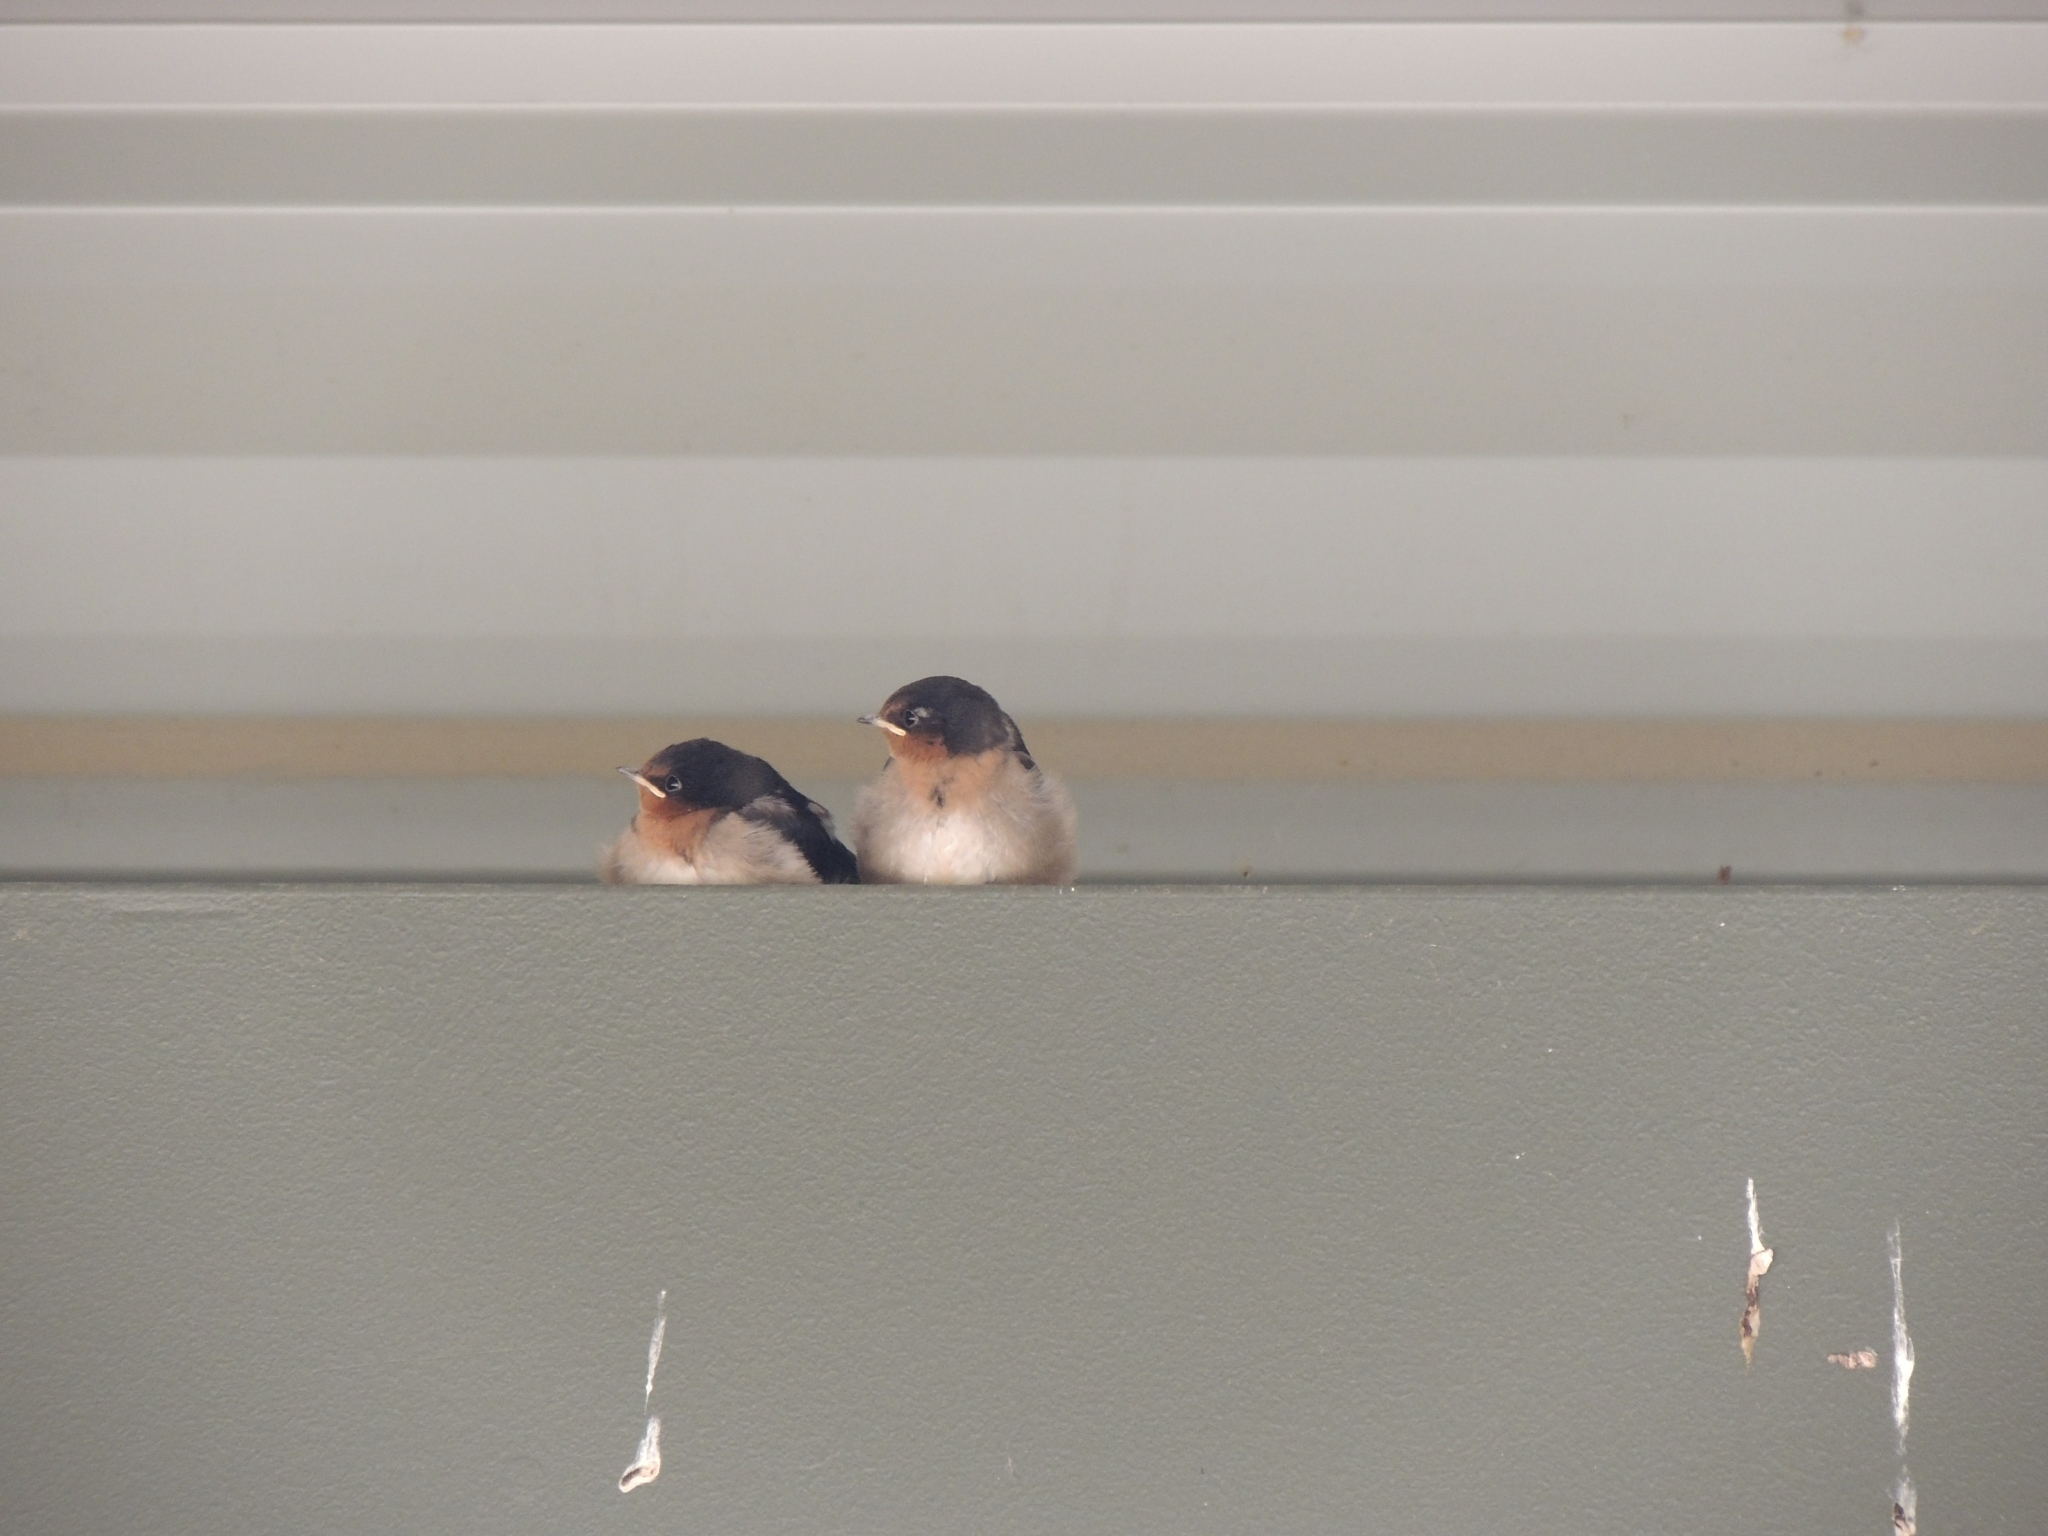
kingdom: Animalia
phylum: Chordata
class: Aves
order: Passeriformes
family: Hirundinidae
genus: Hirundo
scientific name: Hirundo neoxena
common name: Welcome swallow
